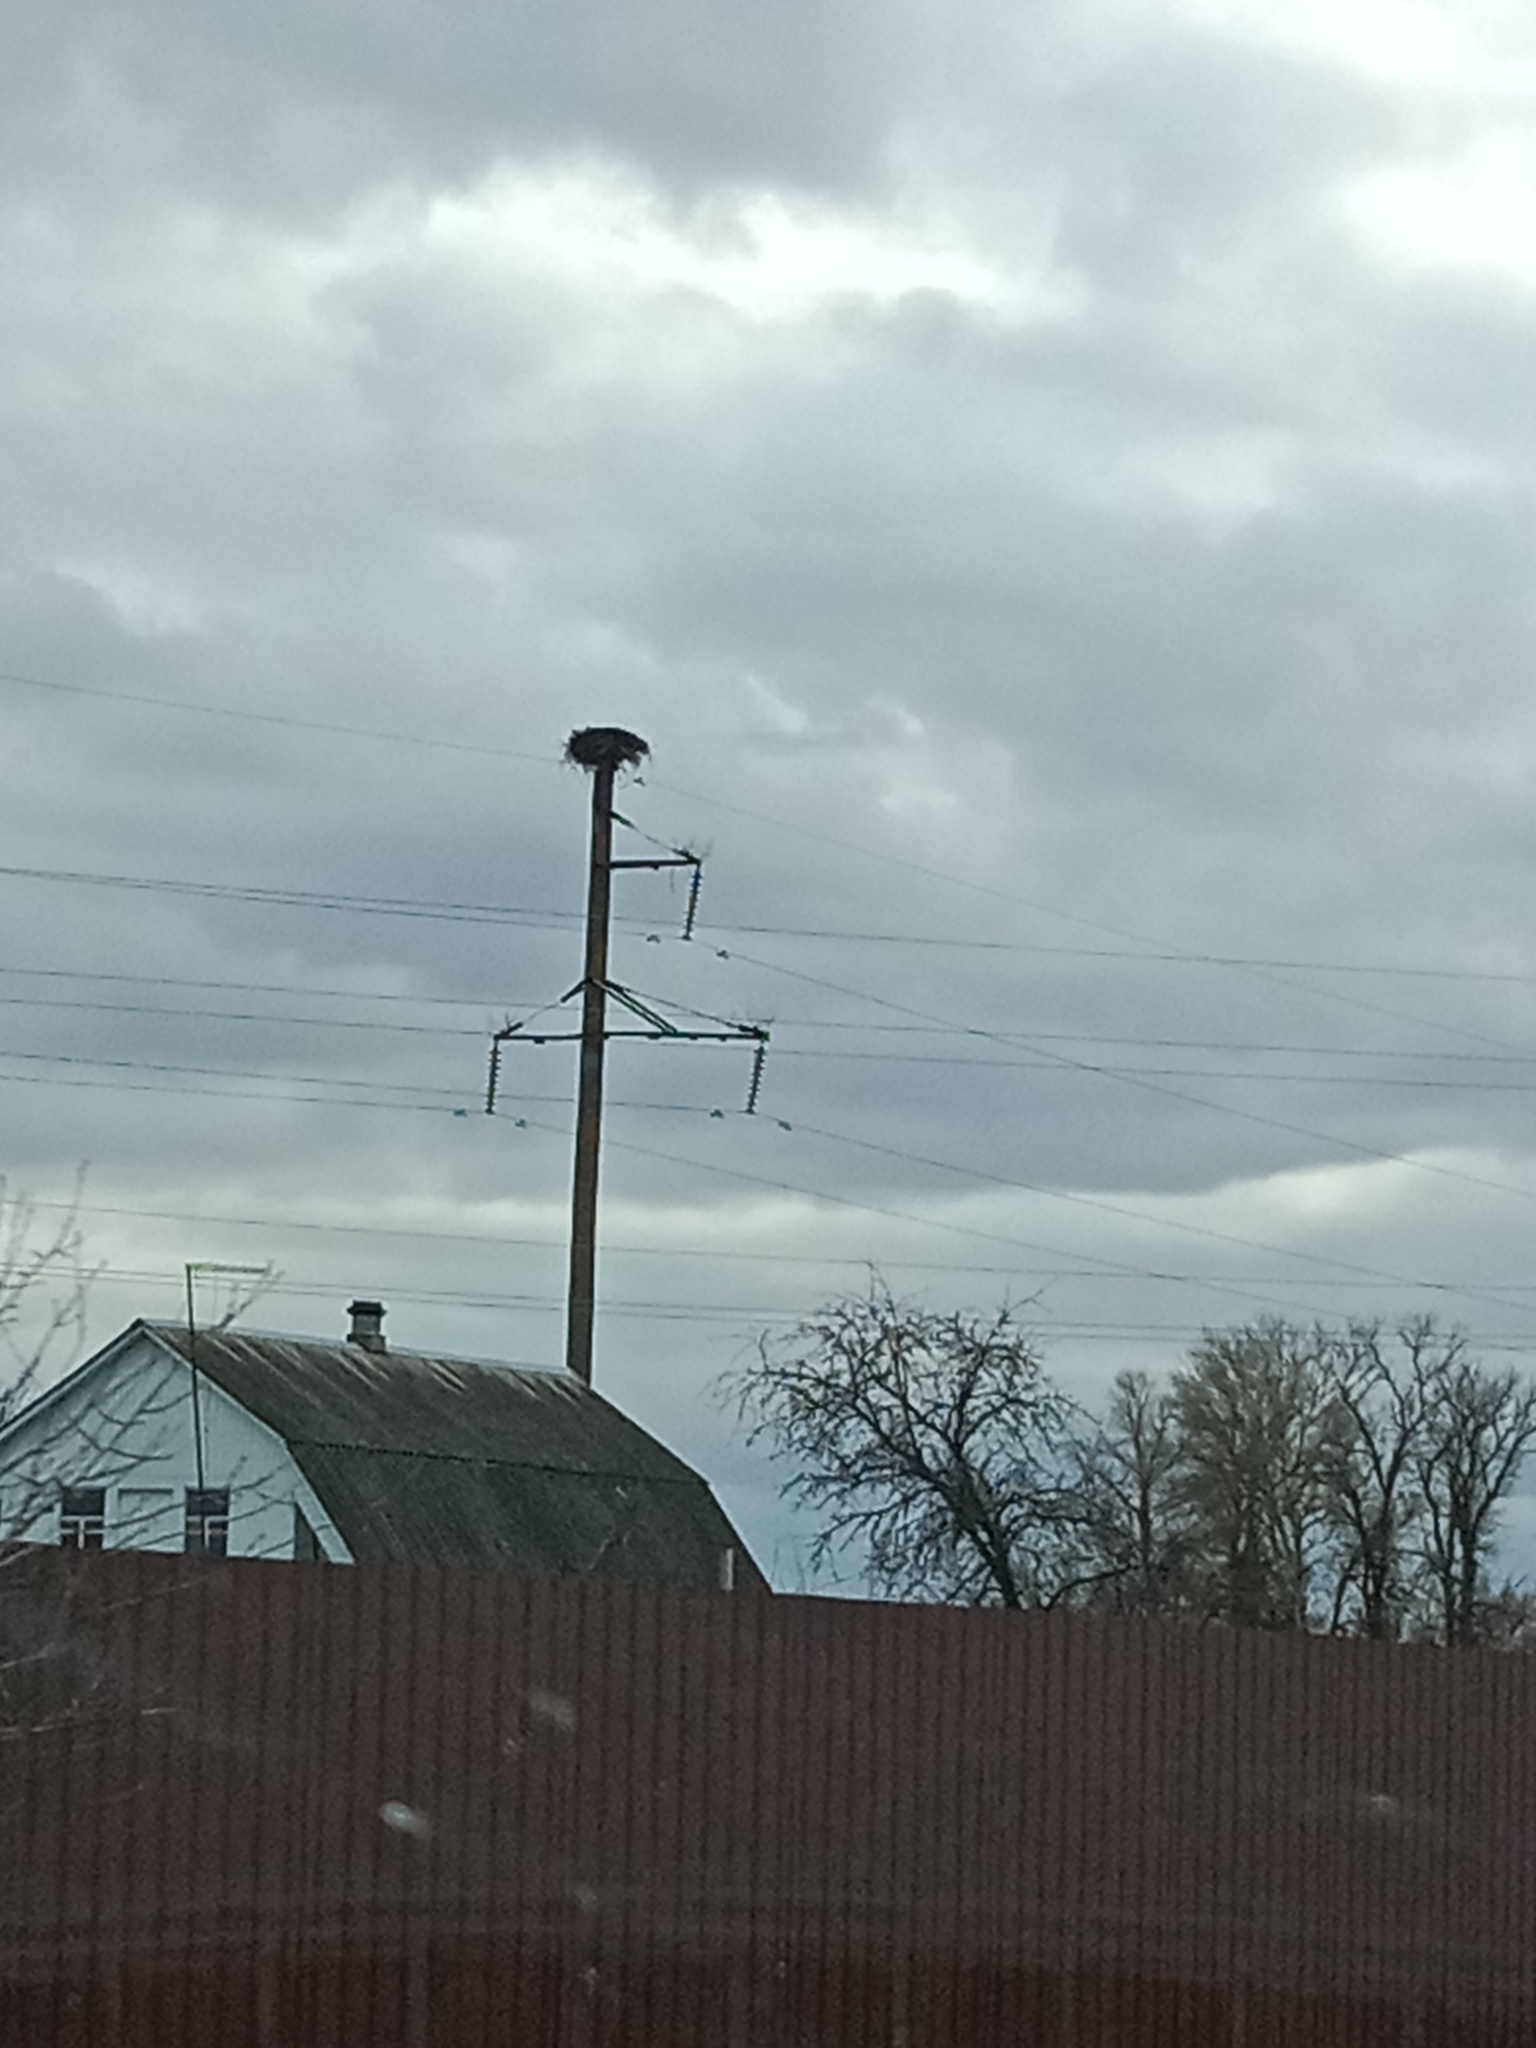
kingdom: Animalia
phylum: Chordata
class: Aves
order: Ciconiiformes
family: Ciconiidae
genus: Ciconia
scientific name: Ciconia ciconia
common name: White stork
